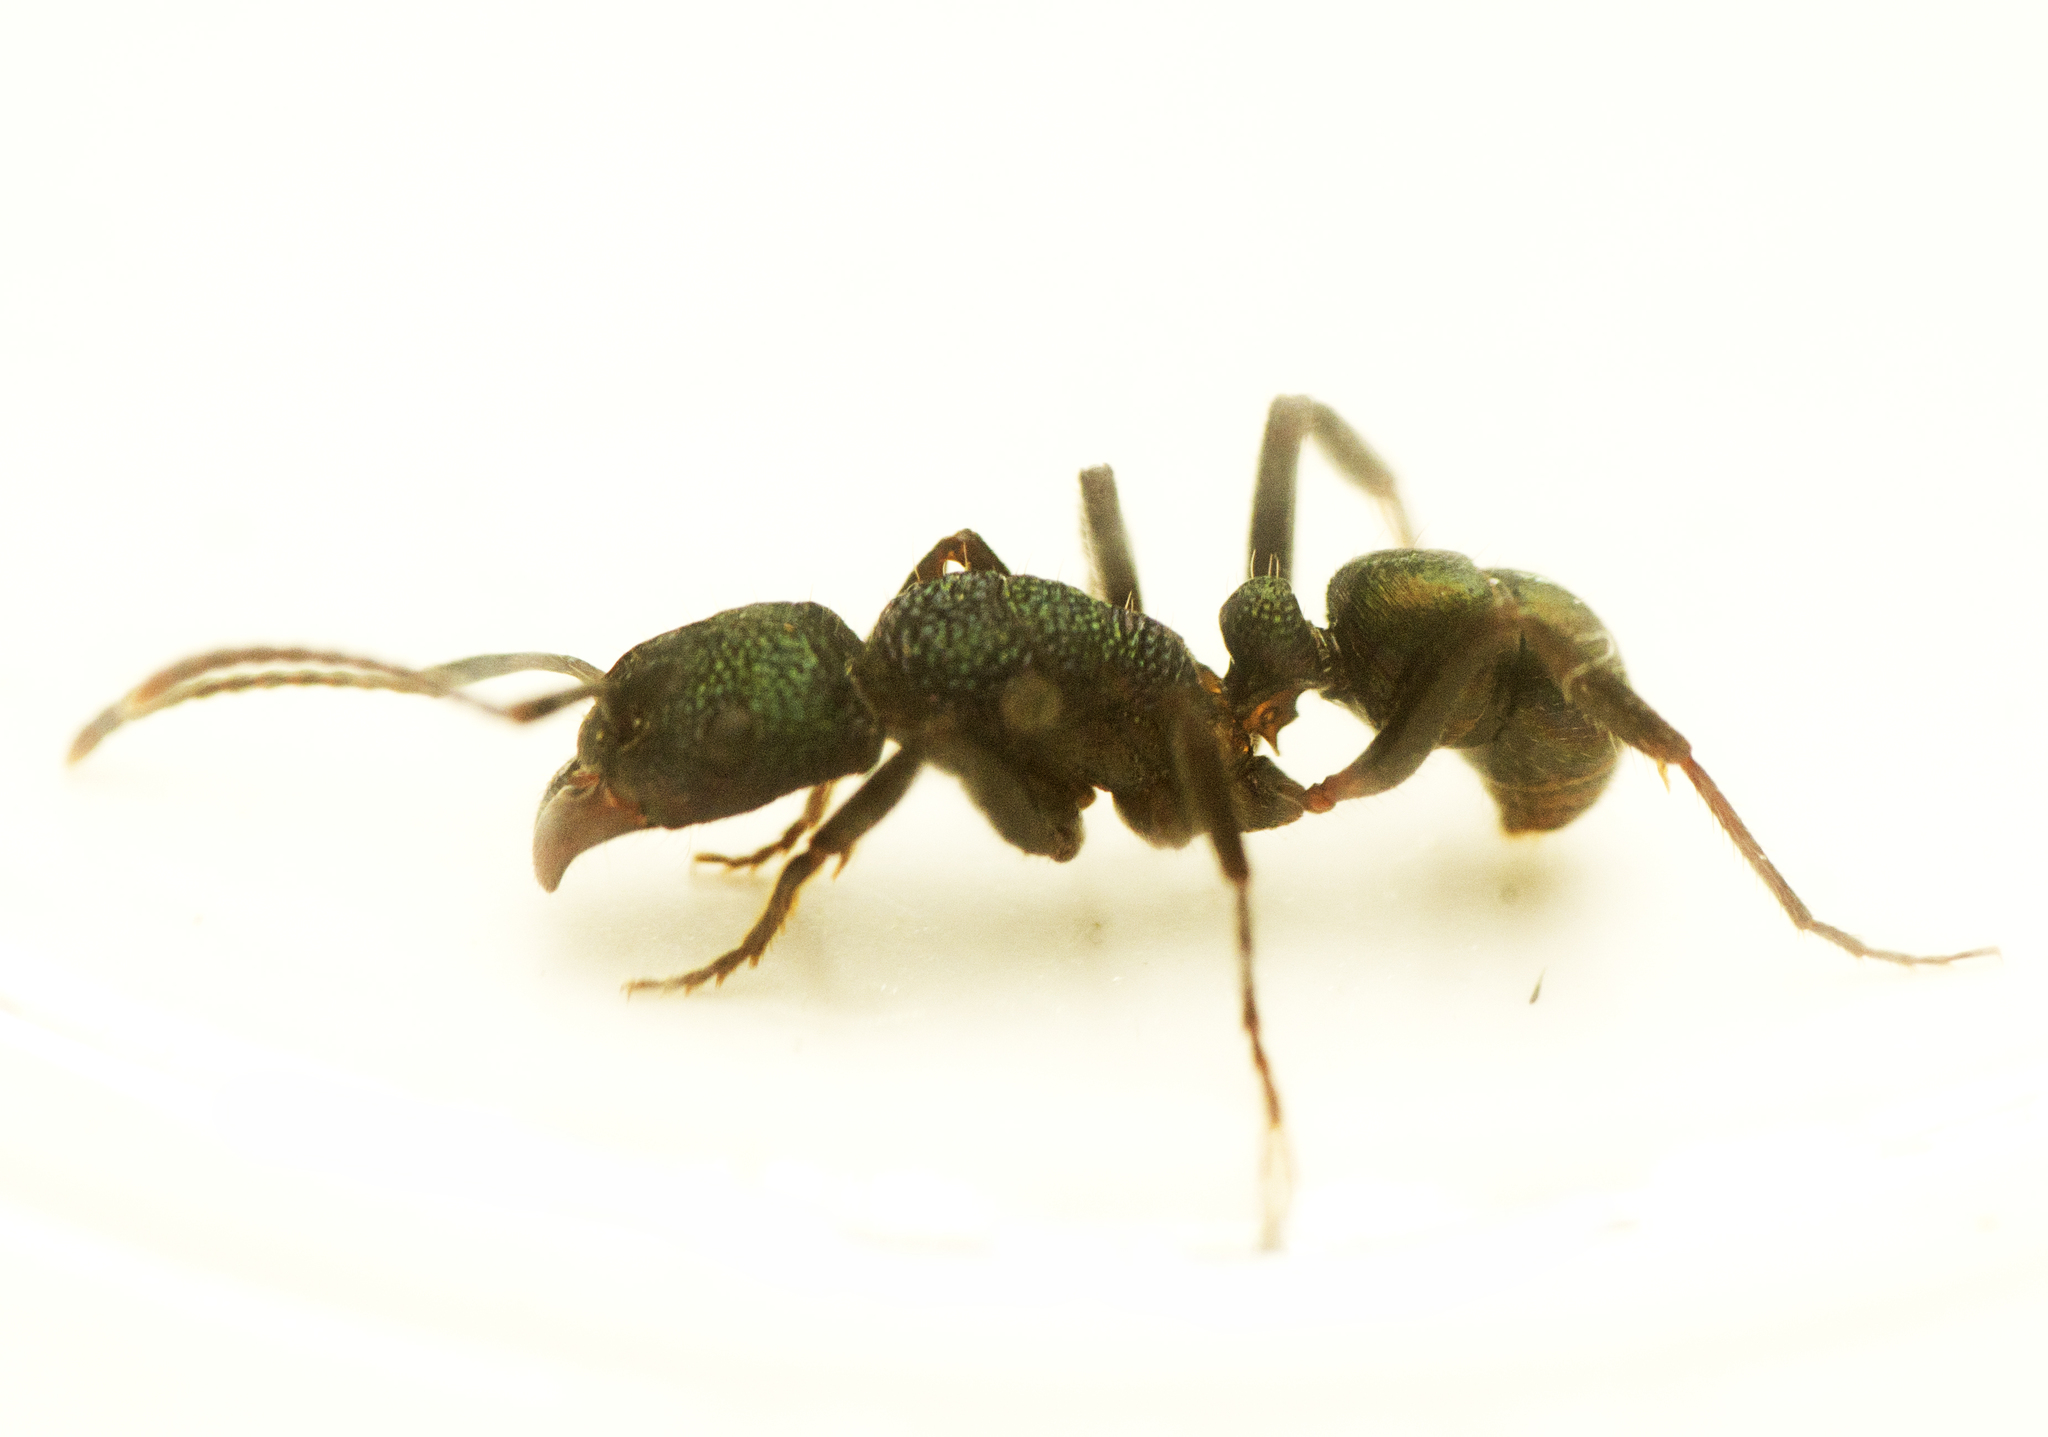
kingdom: Animalia
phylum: Arthropoda
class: Insecta
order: Hymenoptera
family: Formicidae
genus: Rhytidoponera
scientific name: Rhytidoponera metallica
